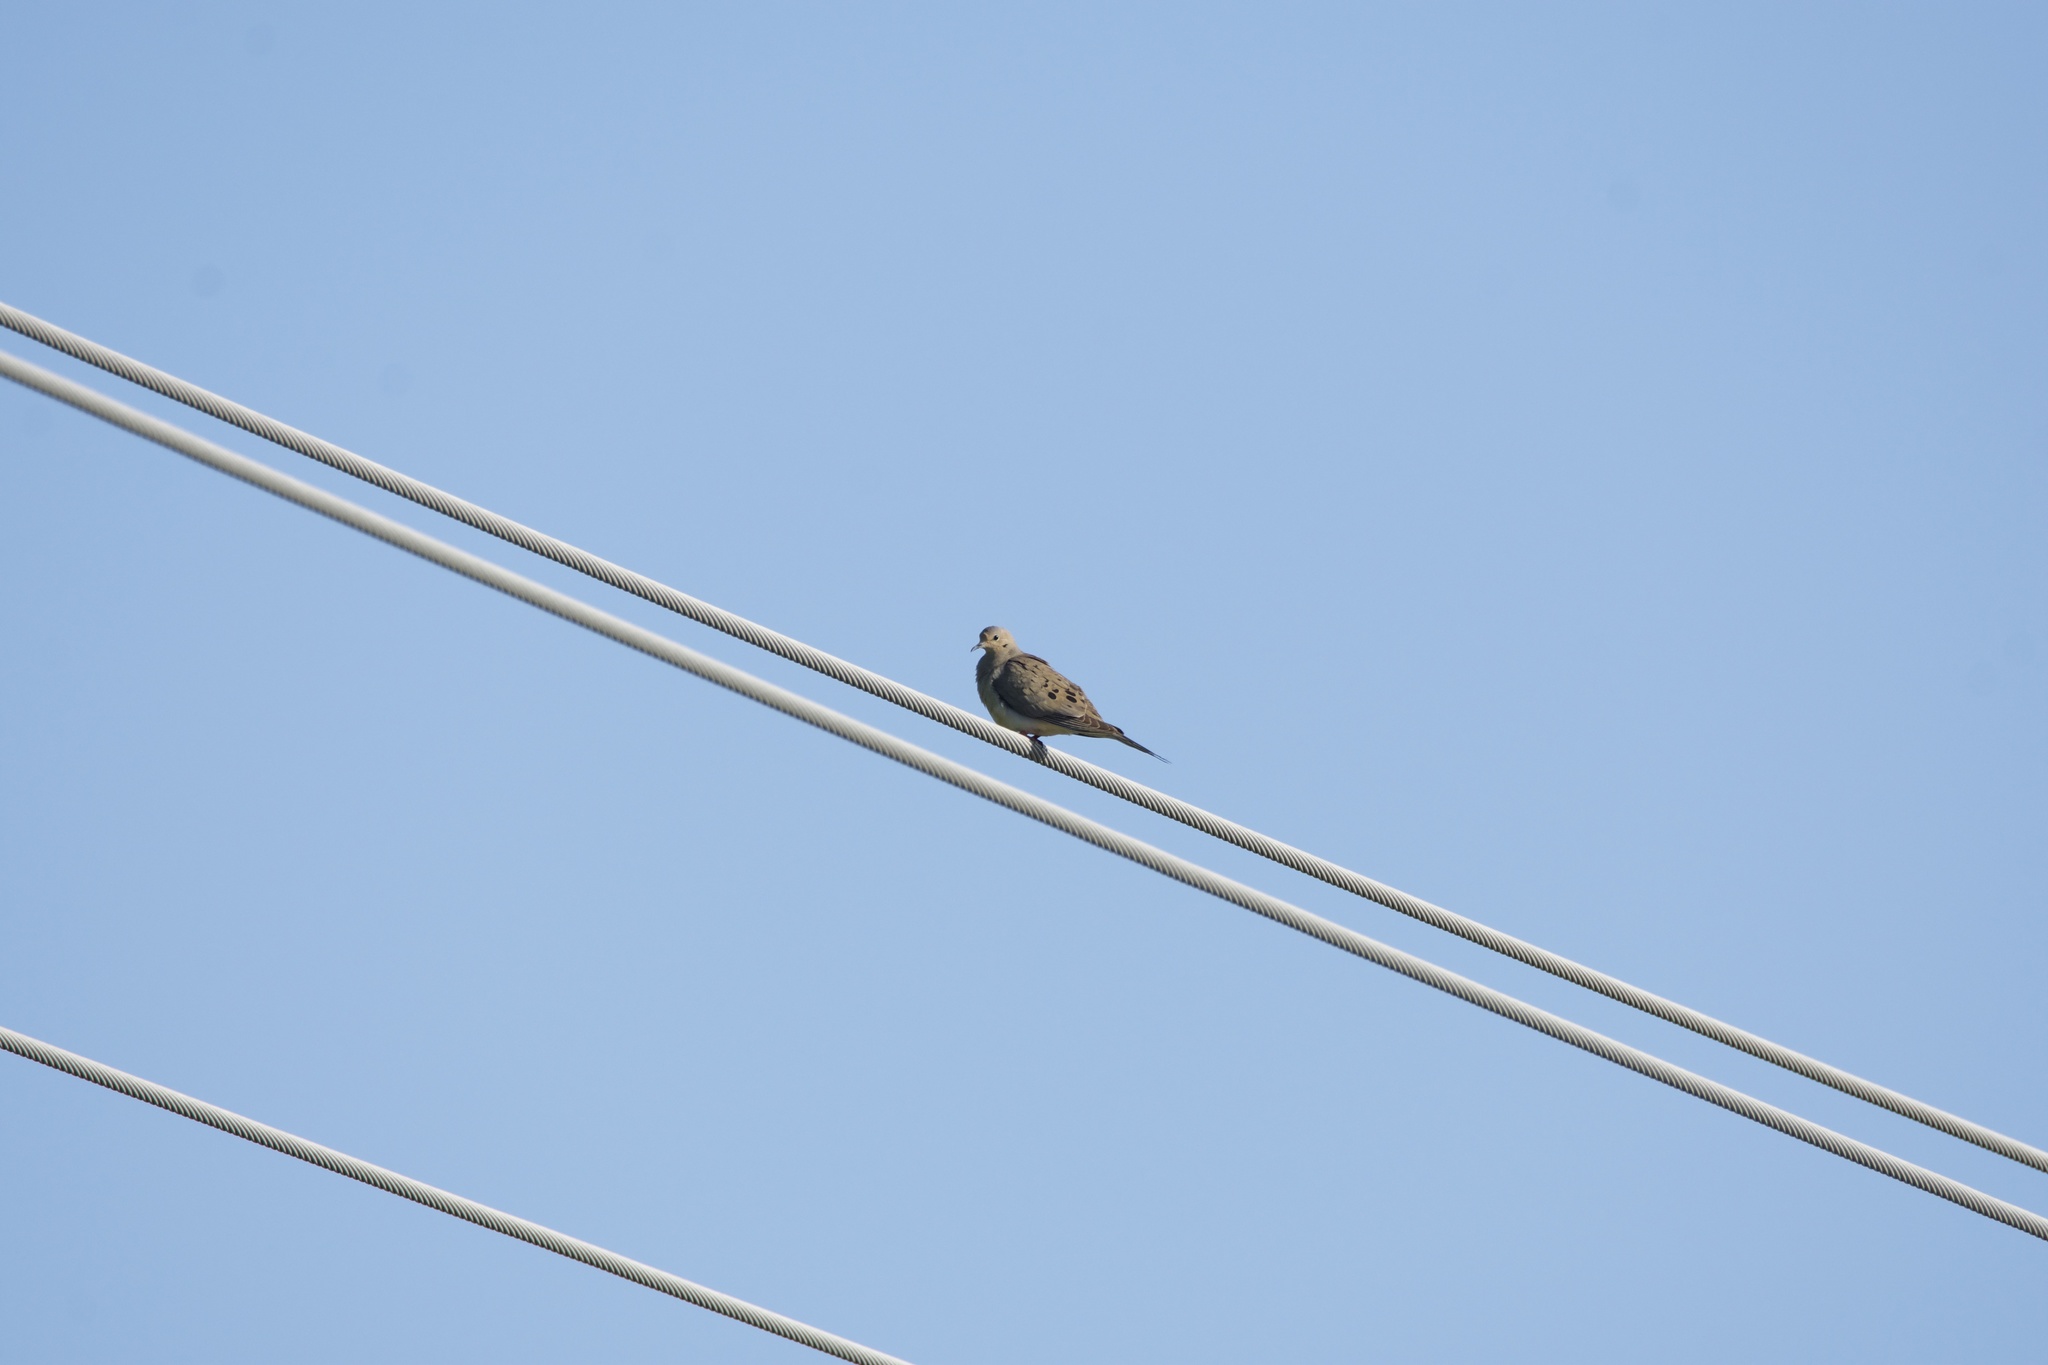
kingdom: Animalia
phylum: Chordata
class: Aves
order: Columbiformes
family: Columbidae
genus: Zenaida
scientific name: Zenaida macroura
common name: Mourning dove
